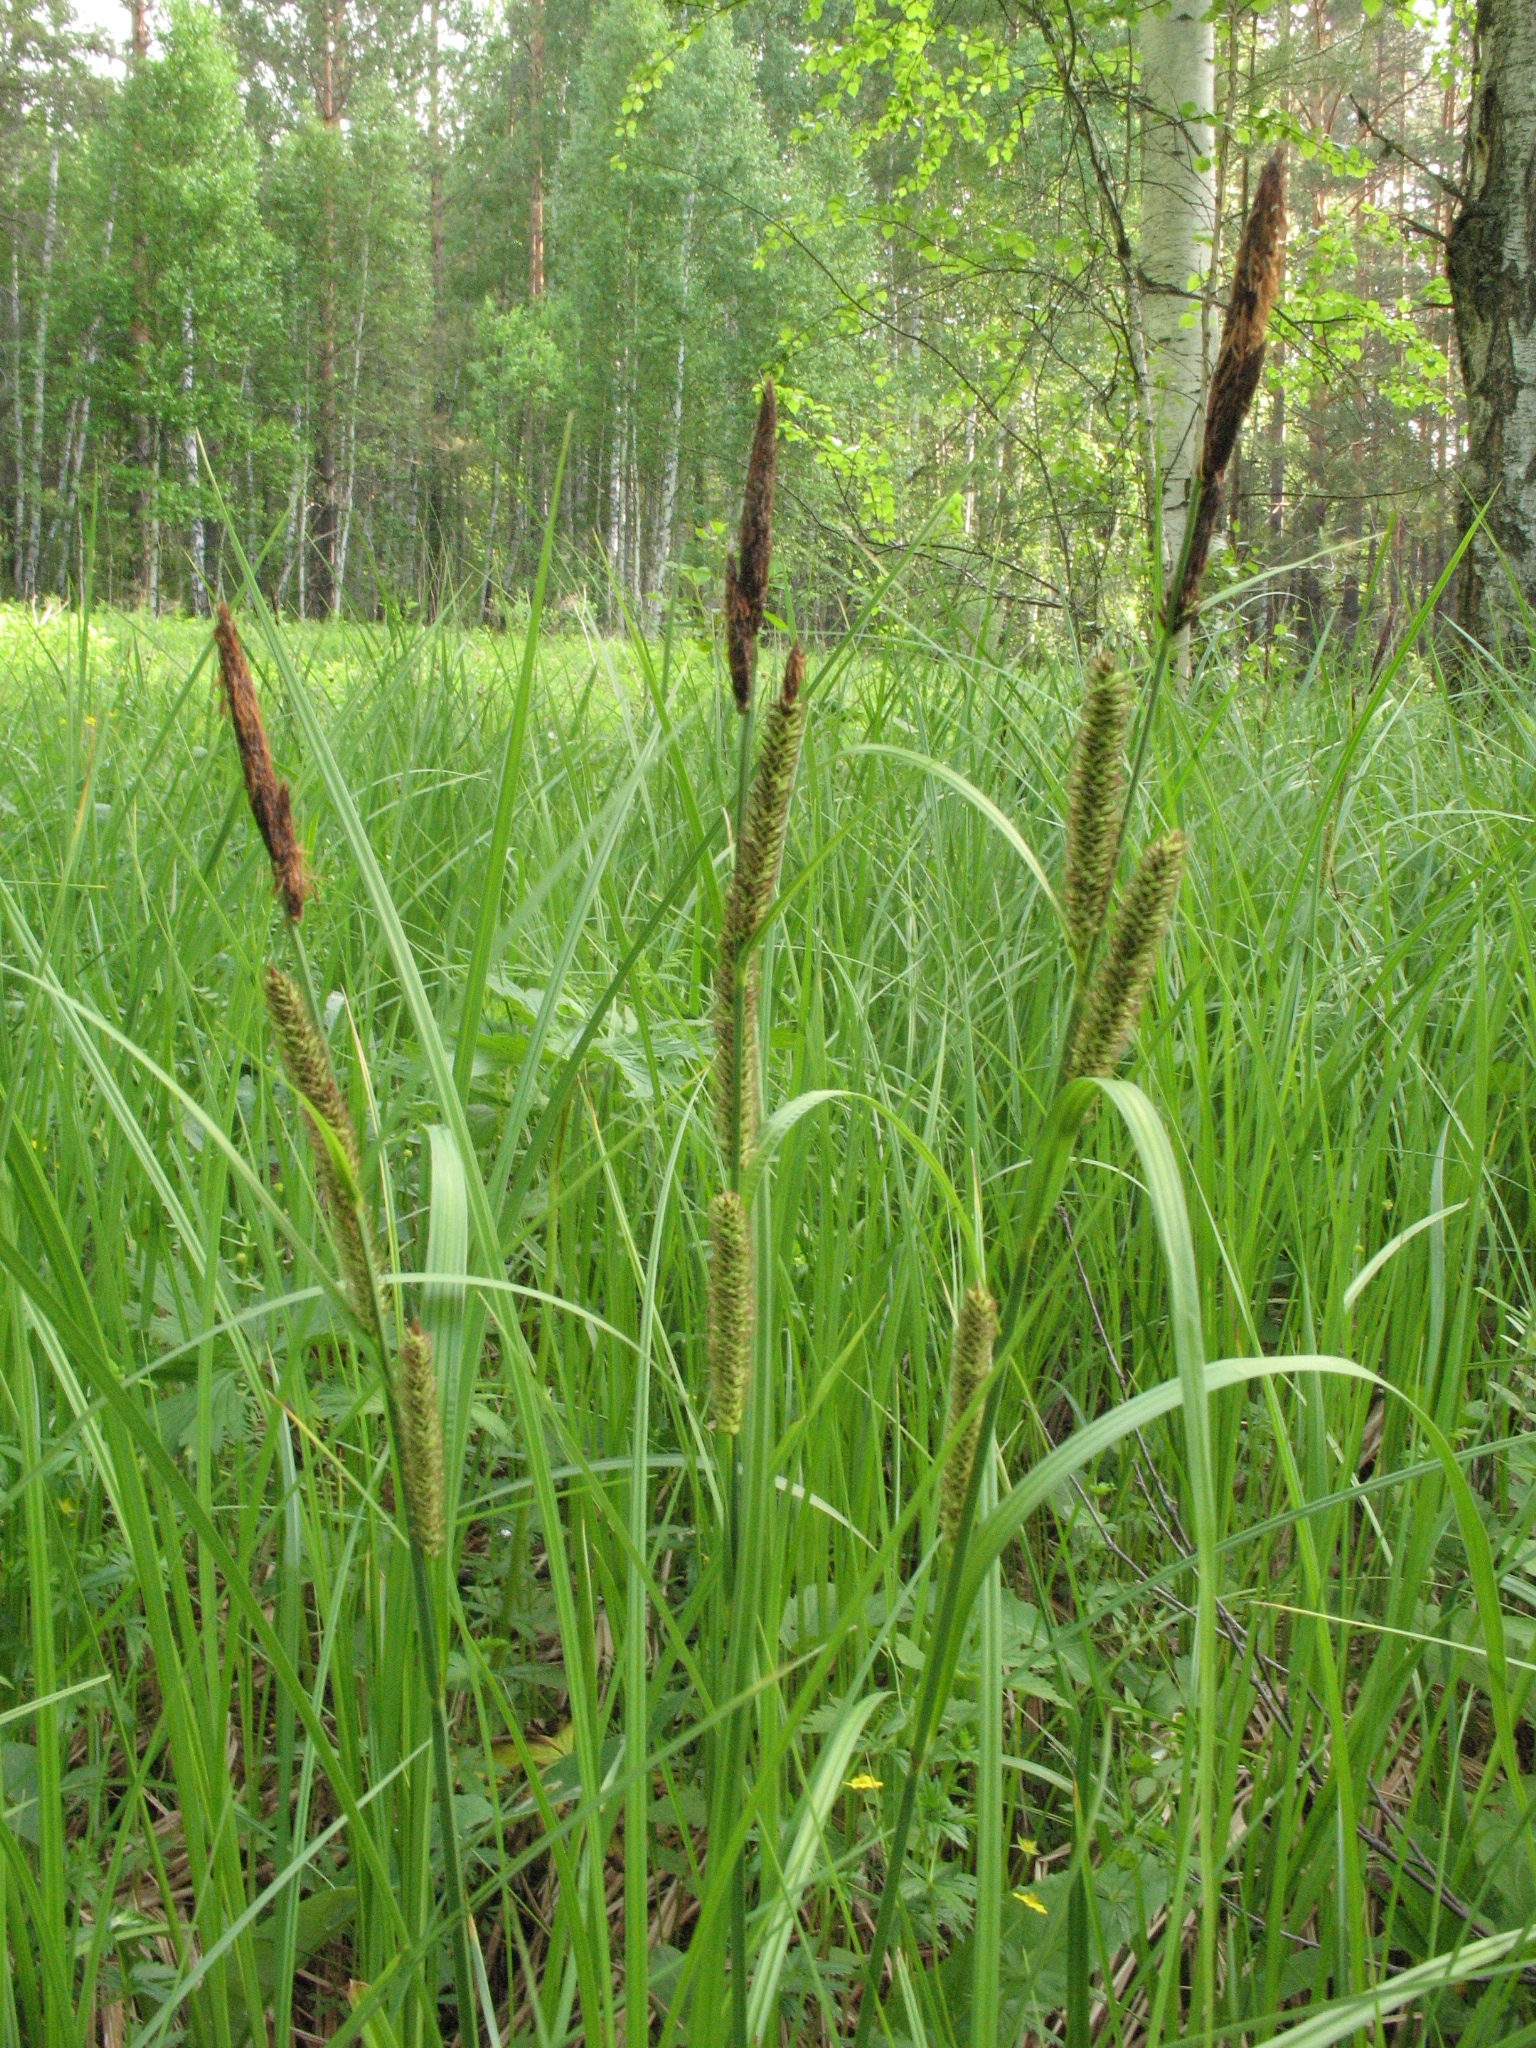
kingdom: Plantae
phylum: Tracheophyta
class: Liliopsida
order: Poales
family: Cyperaceae
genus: Carex
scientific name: Carex acutiformis
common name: Lesser pond-sedge
